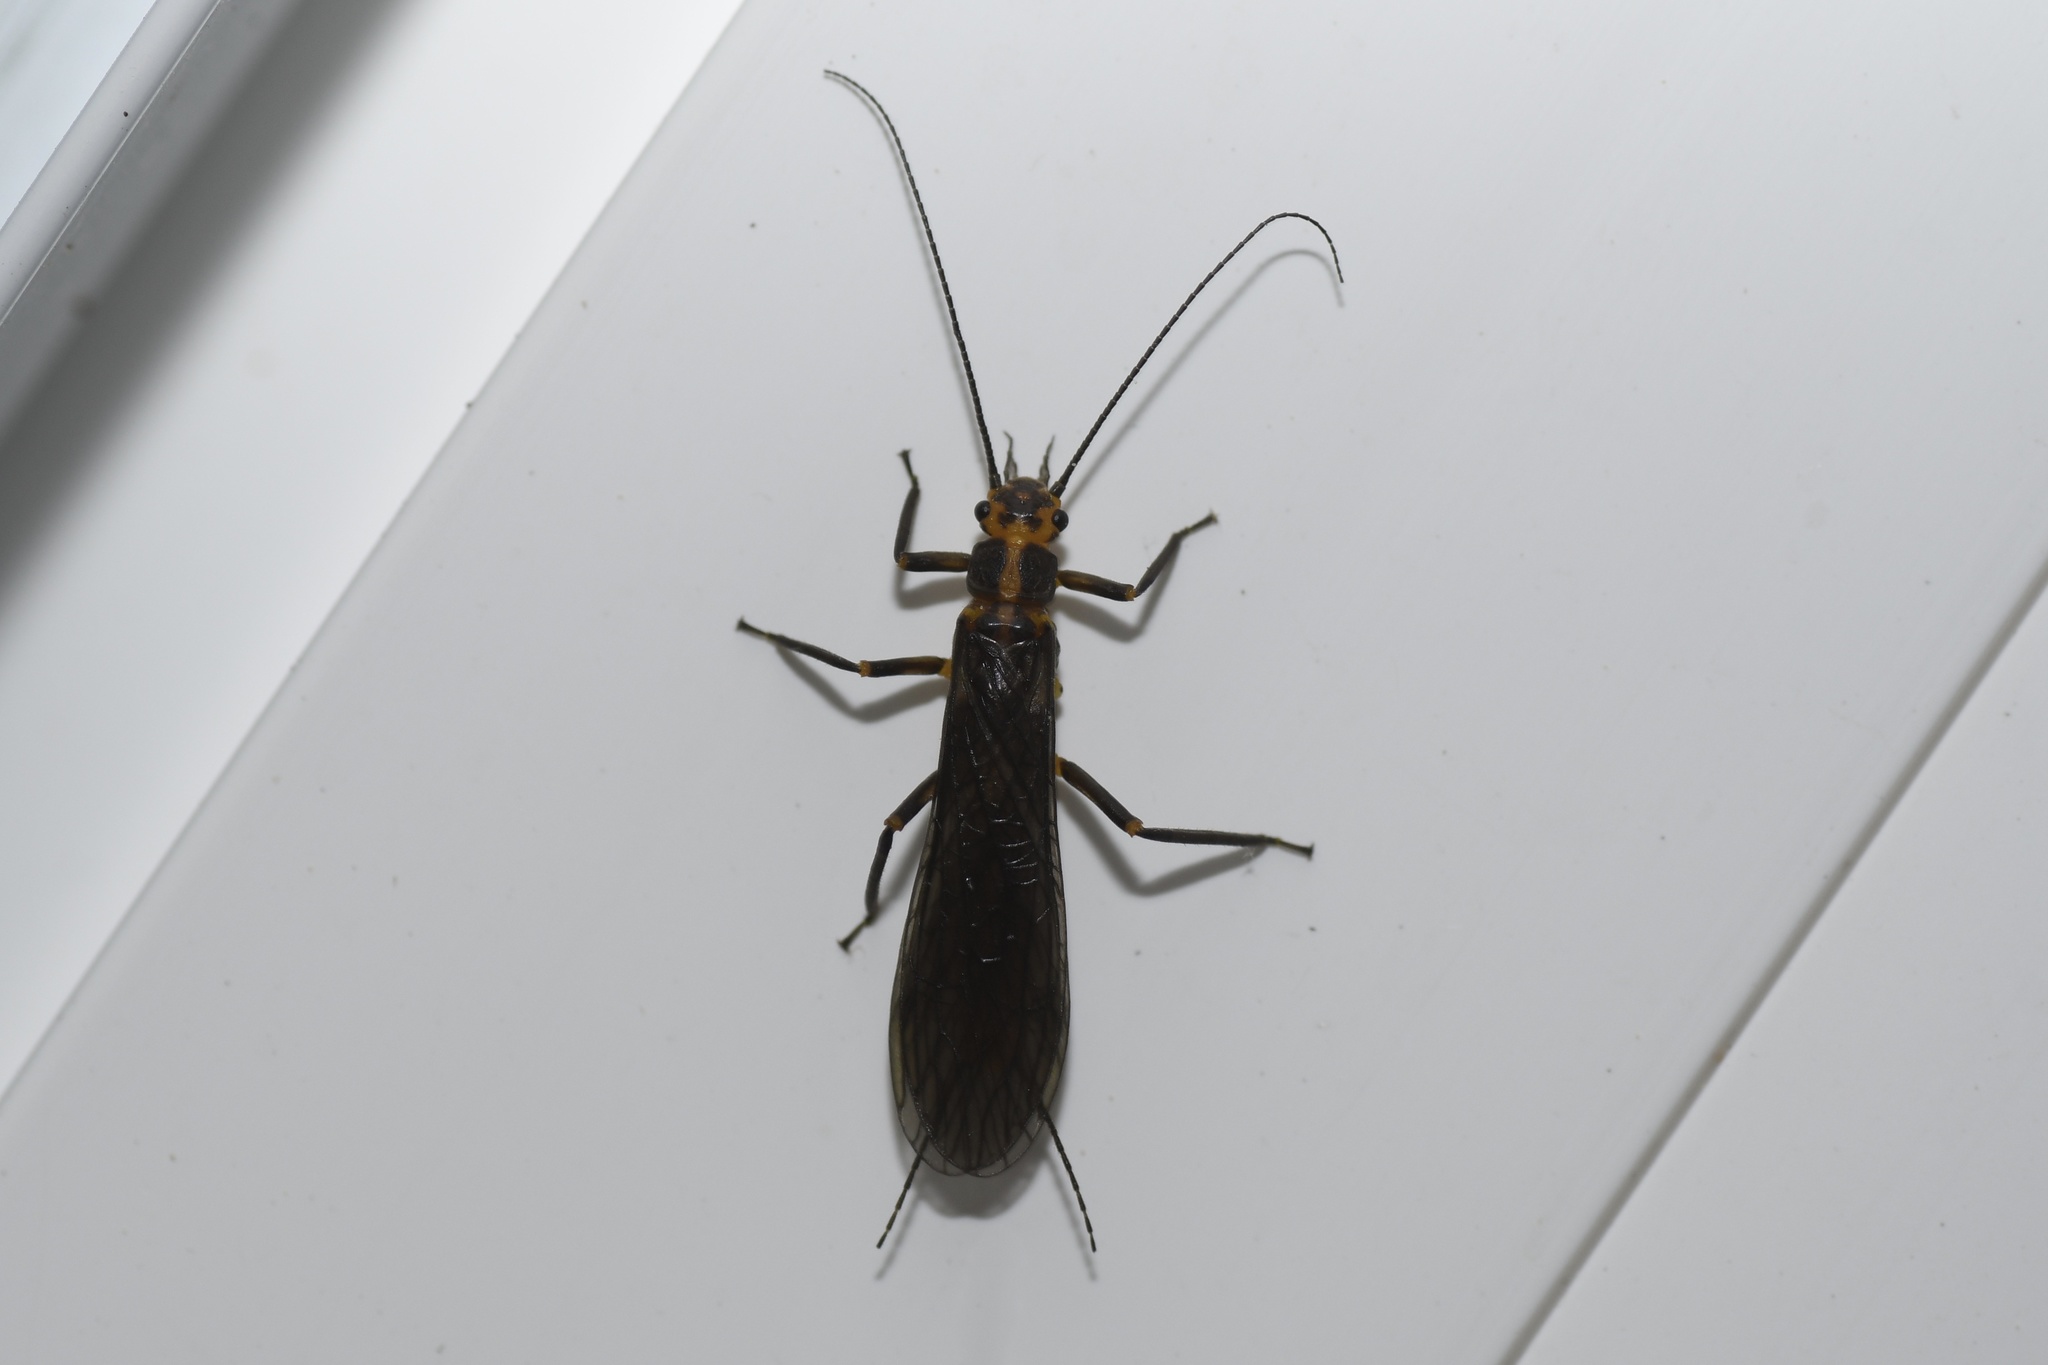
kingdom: Animalia
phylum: Arthropoda
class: Insecta
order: Plecoptera
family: Perlodidae
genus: Helopicus
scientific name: Helopicus subvarians
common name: Vernal springfly
